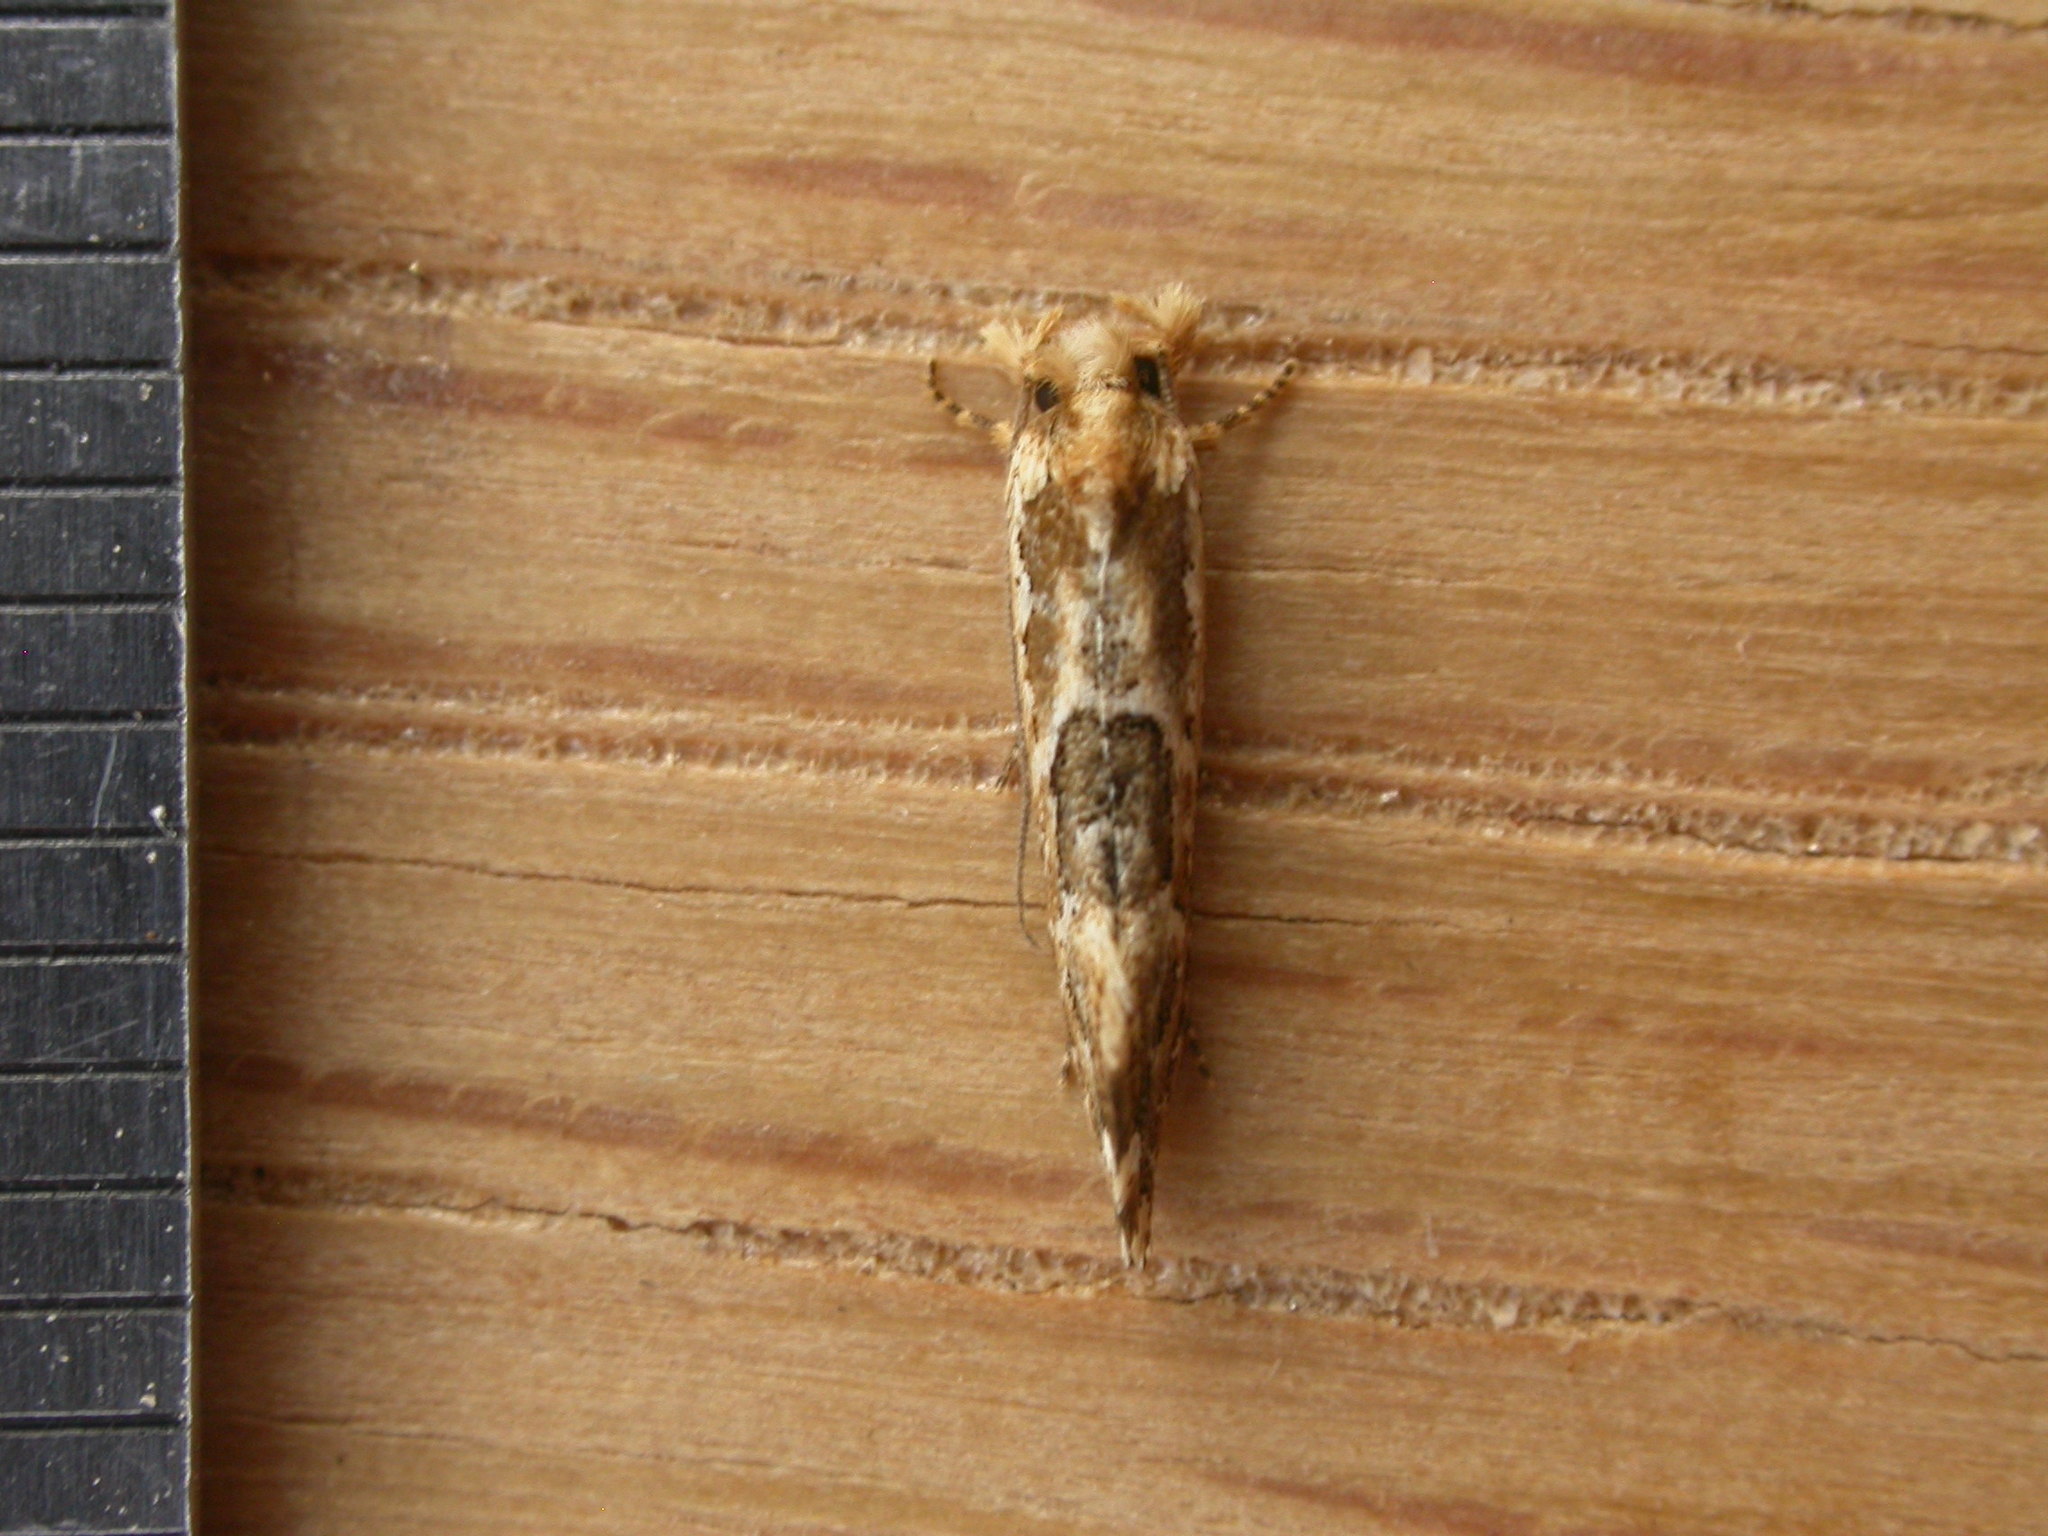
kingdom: Animalia
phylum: Arthropoda
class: Insecta
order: Lepidoptera
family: Tineidae
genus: Moerarchis
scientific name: Moerarchis inconcisella
